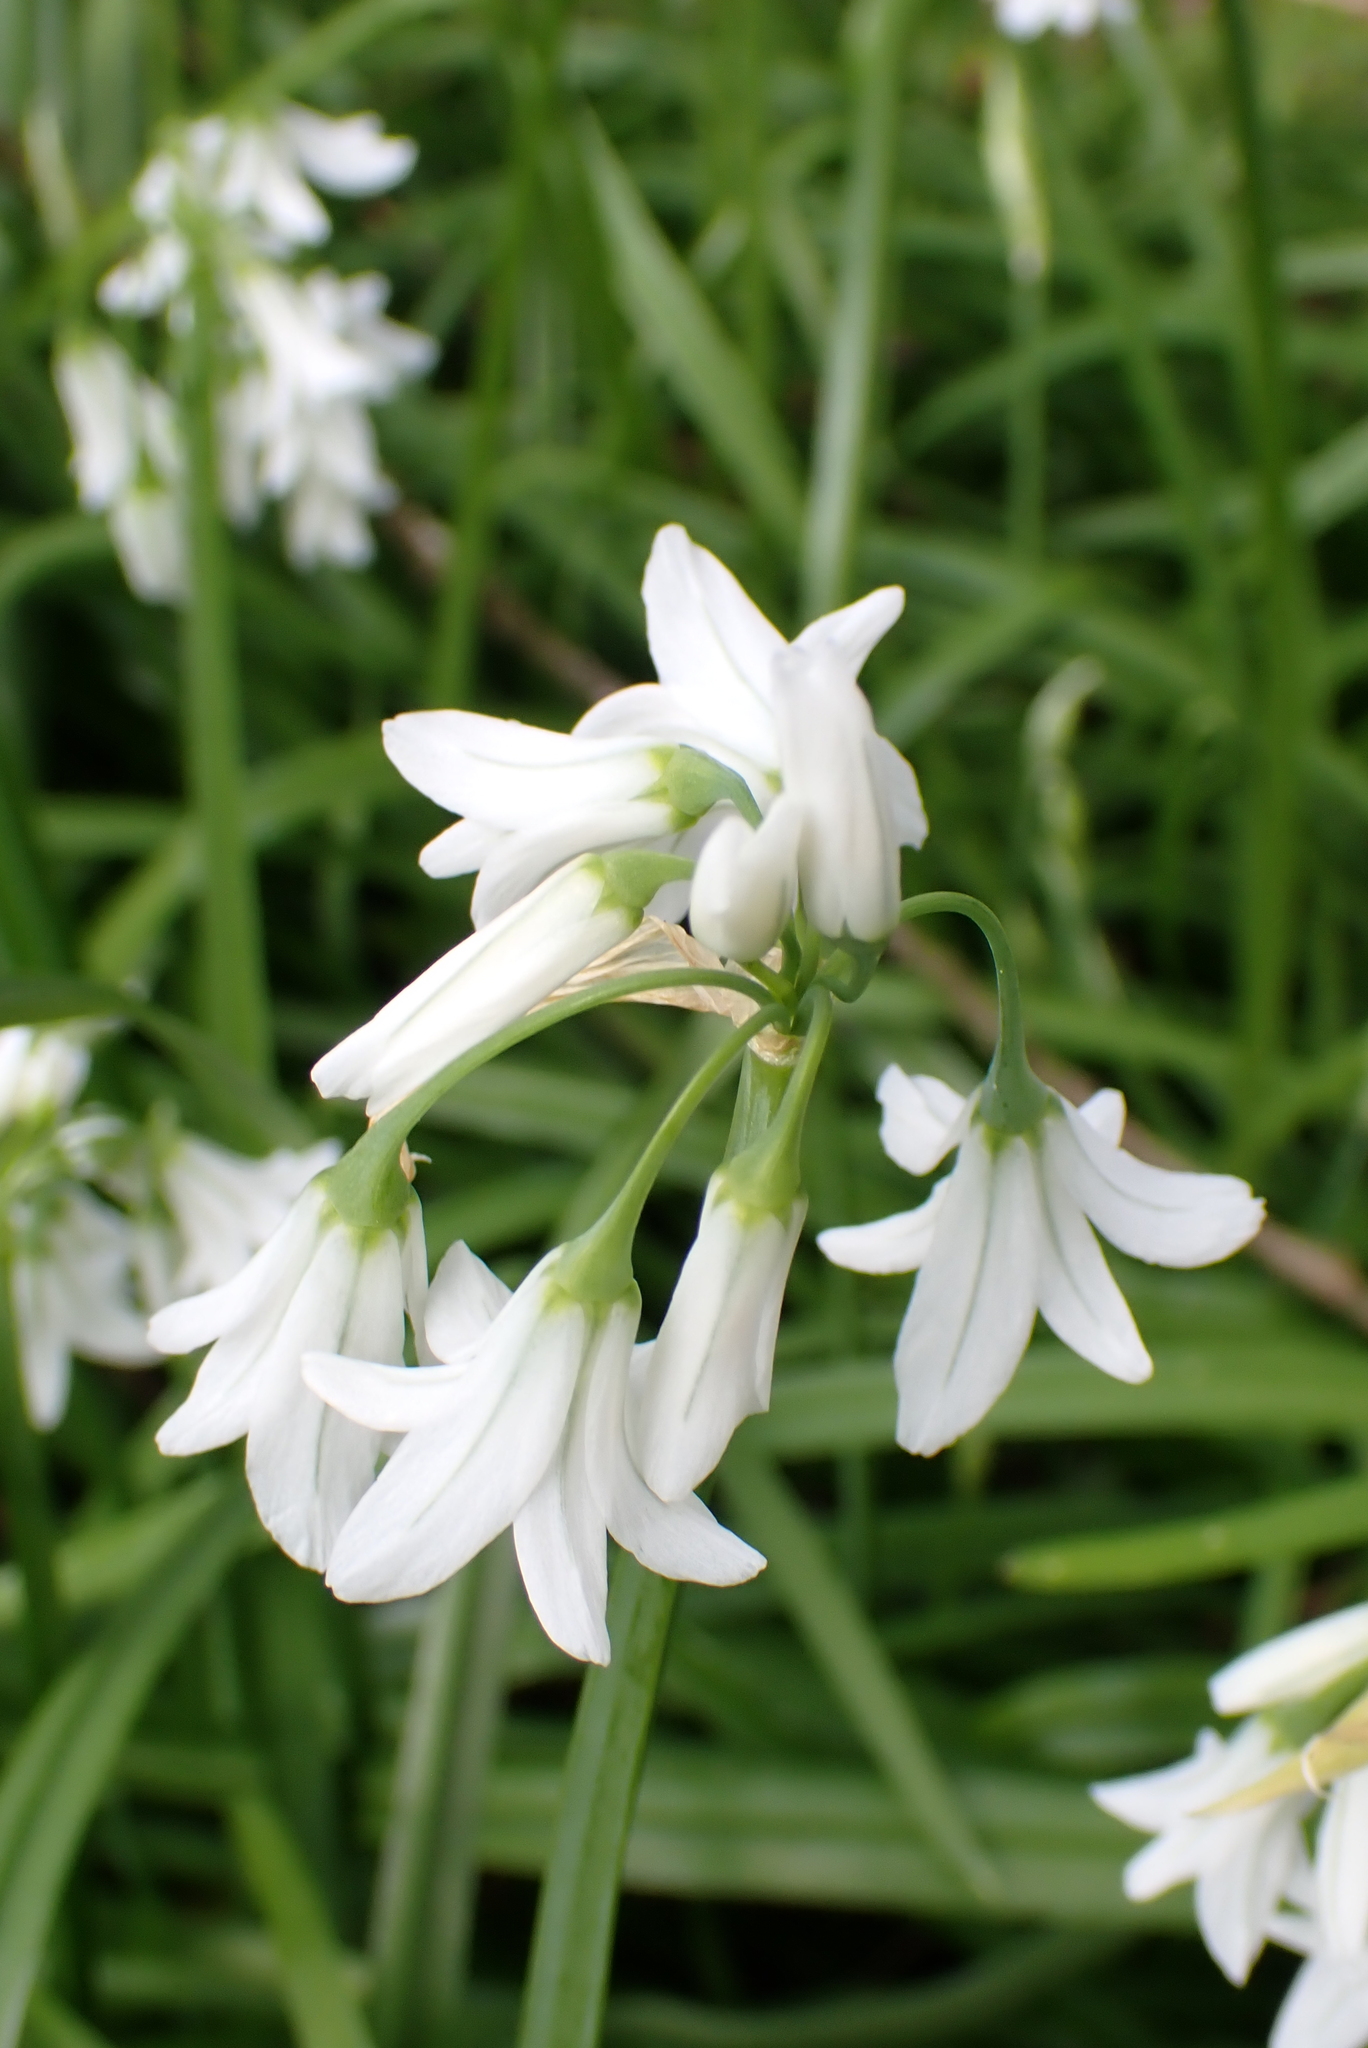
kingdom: Plantae
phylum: Tracheophyta
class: Liliopsida
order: Asparagales
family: Amaryllidaceae
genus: Allium
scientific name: Allium triquetrum
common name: Three-cornered garlic
